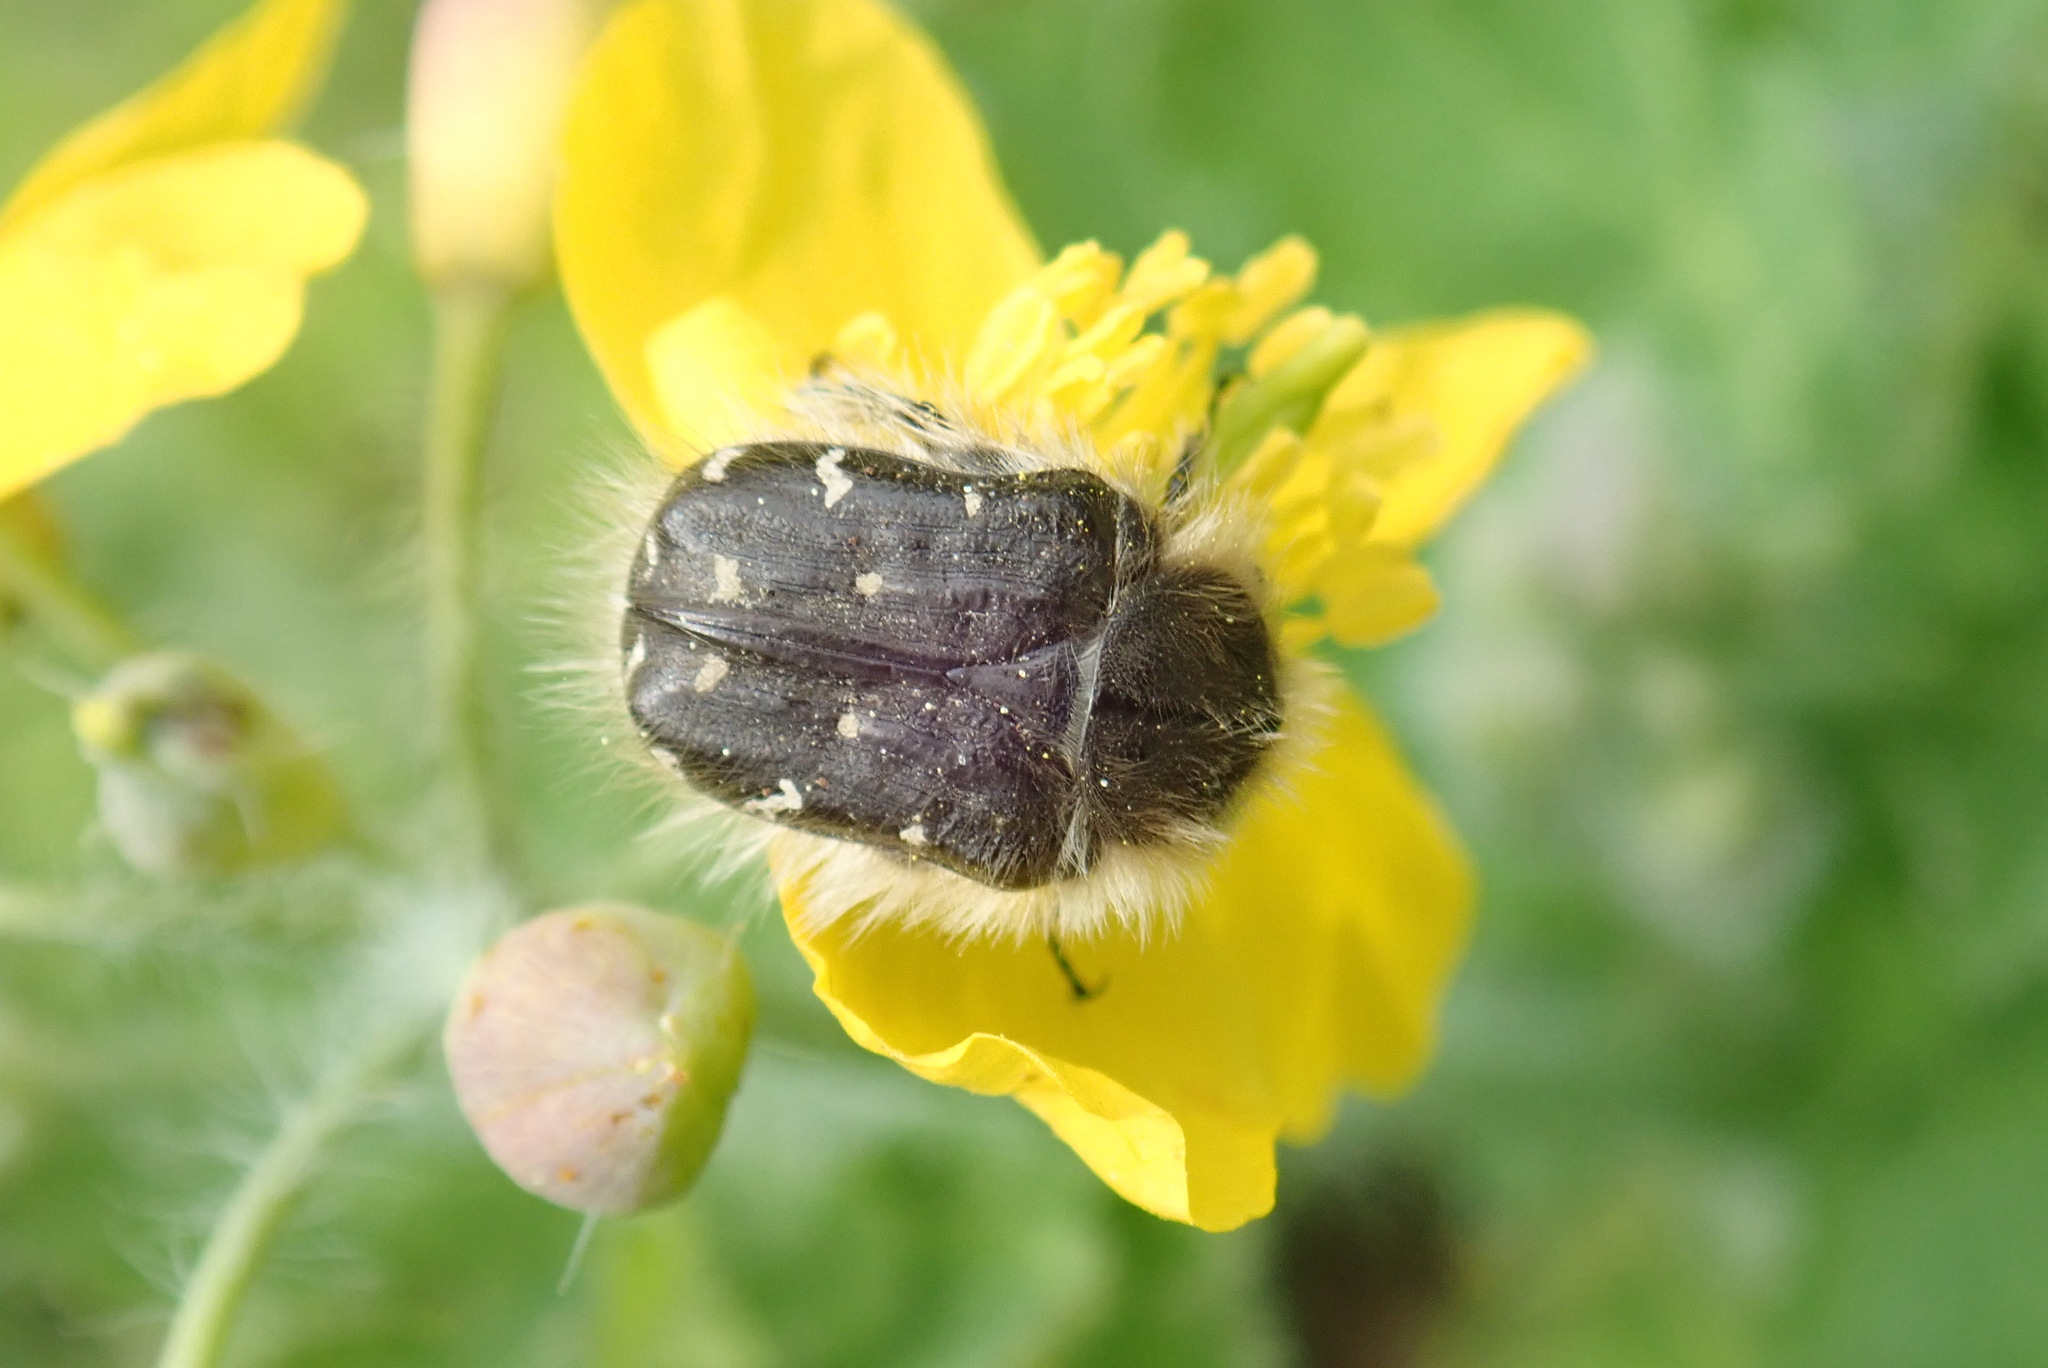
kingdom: Animalia
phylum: Arthropoda
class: Insecta
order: Coleoptera
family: Scarabaeidae
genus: Tropinota
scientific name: Tropinota hirta
